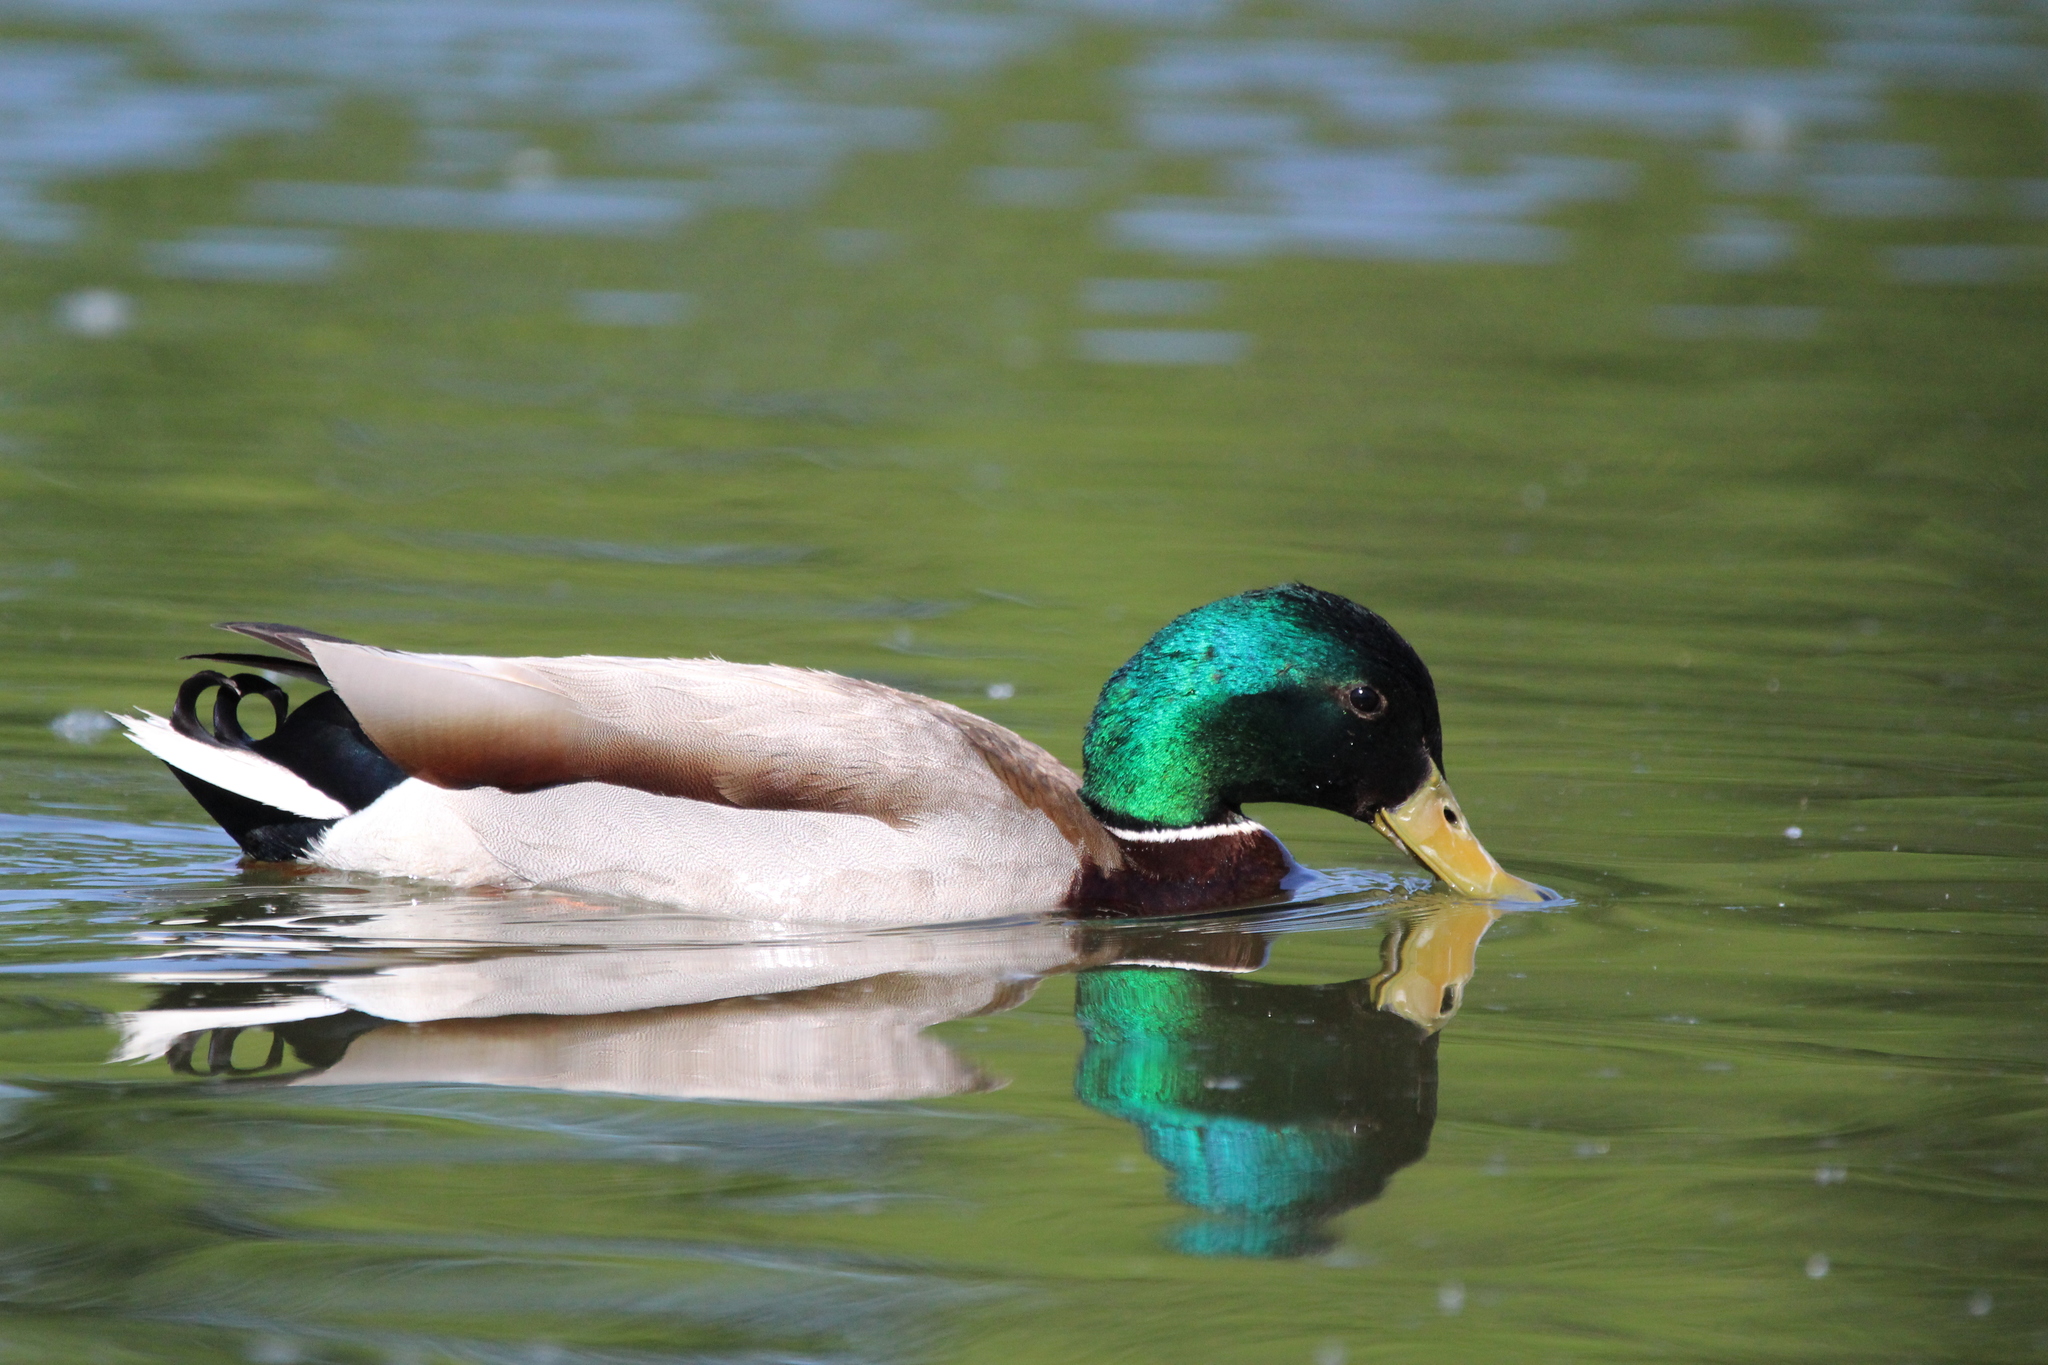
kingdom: Animalia
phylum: Chordata
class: Aves
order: Anseriformes
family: Anatidae
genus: Anas
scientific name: Anas platyrhynchos
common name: Mallard
